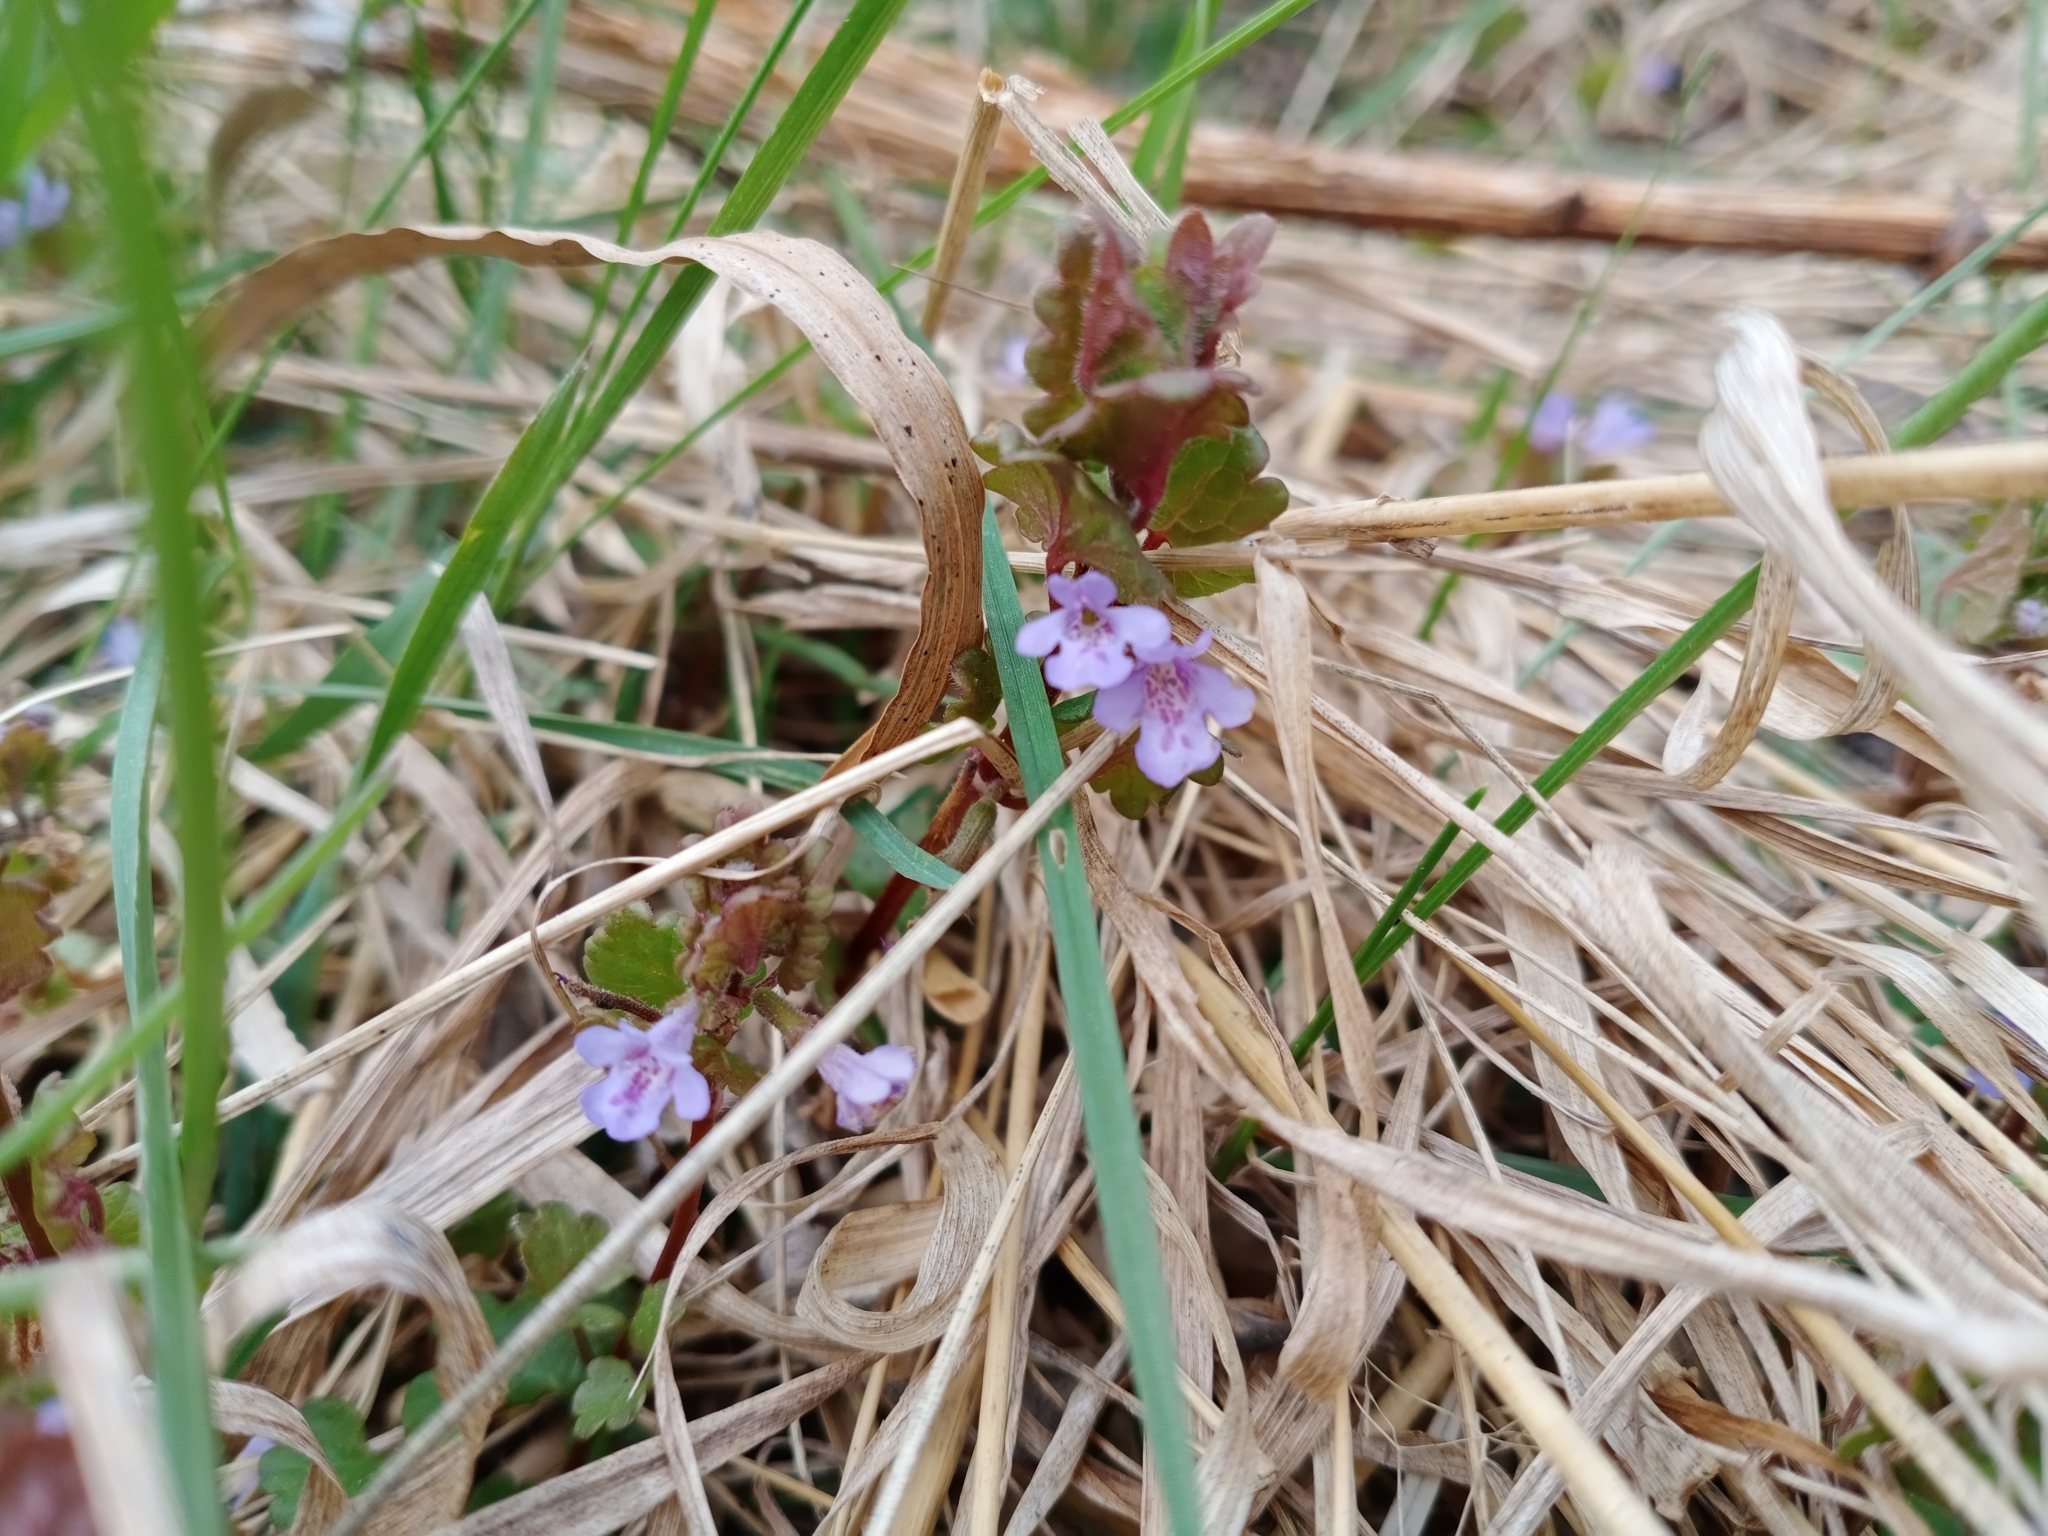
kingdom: Plantae
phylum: Tracheophyta
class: Magnoliopsida
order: Lamiales
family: Lamiaceae
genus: Glechoma
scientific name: Glechoma hederacea
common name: Ground ivy
